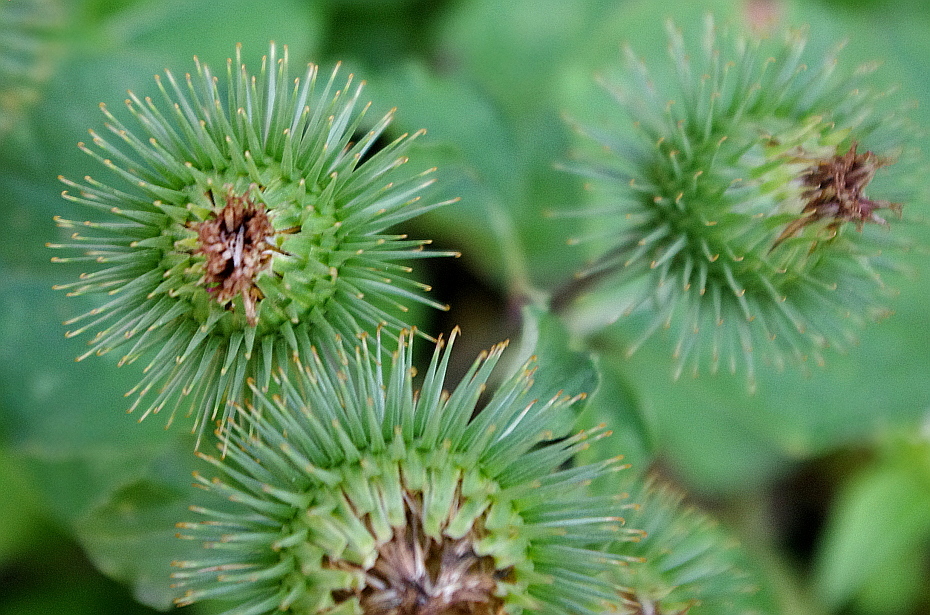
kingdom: Plantae
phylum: Tracheophyta
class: Magnoliopsida
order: Asterales
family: Asteraceae
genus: Arctium
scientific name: Arctium lappa
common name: Greater burdock
